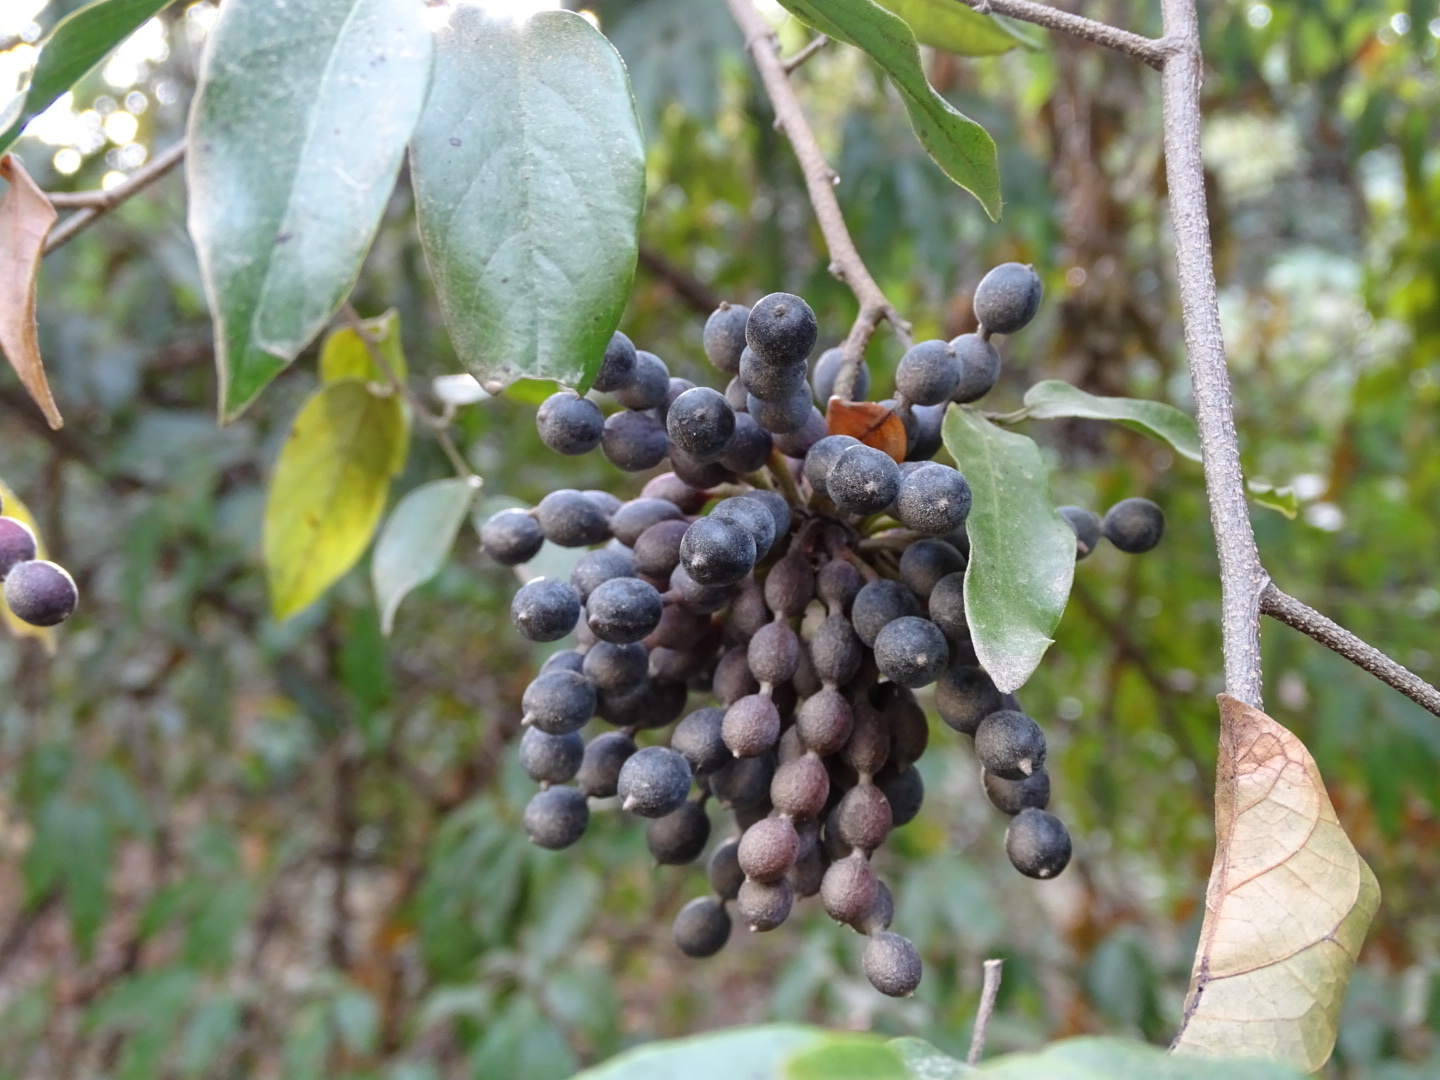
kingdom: Plantae
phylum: Tracheophyta
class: Magnoliopsida
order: Magnoliales
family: Annonaceae
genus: Desmos
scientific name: Desmos chinensis
